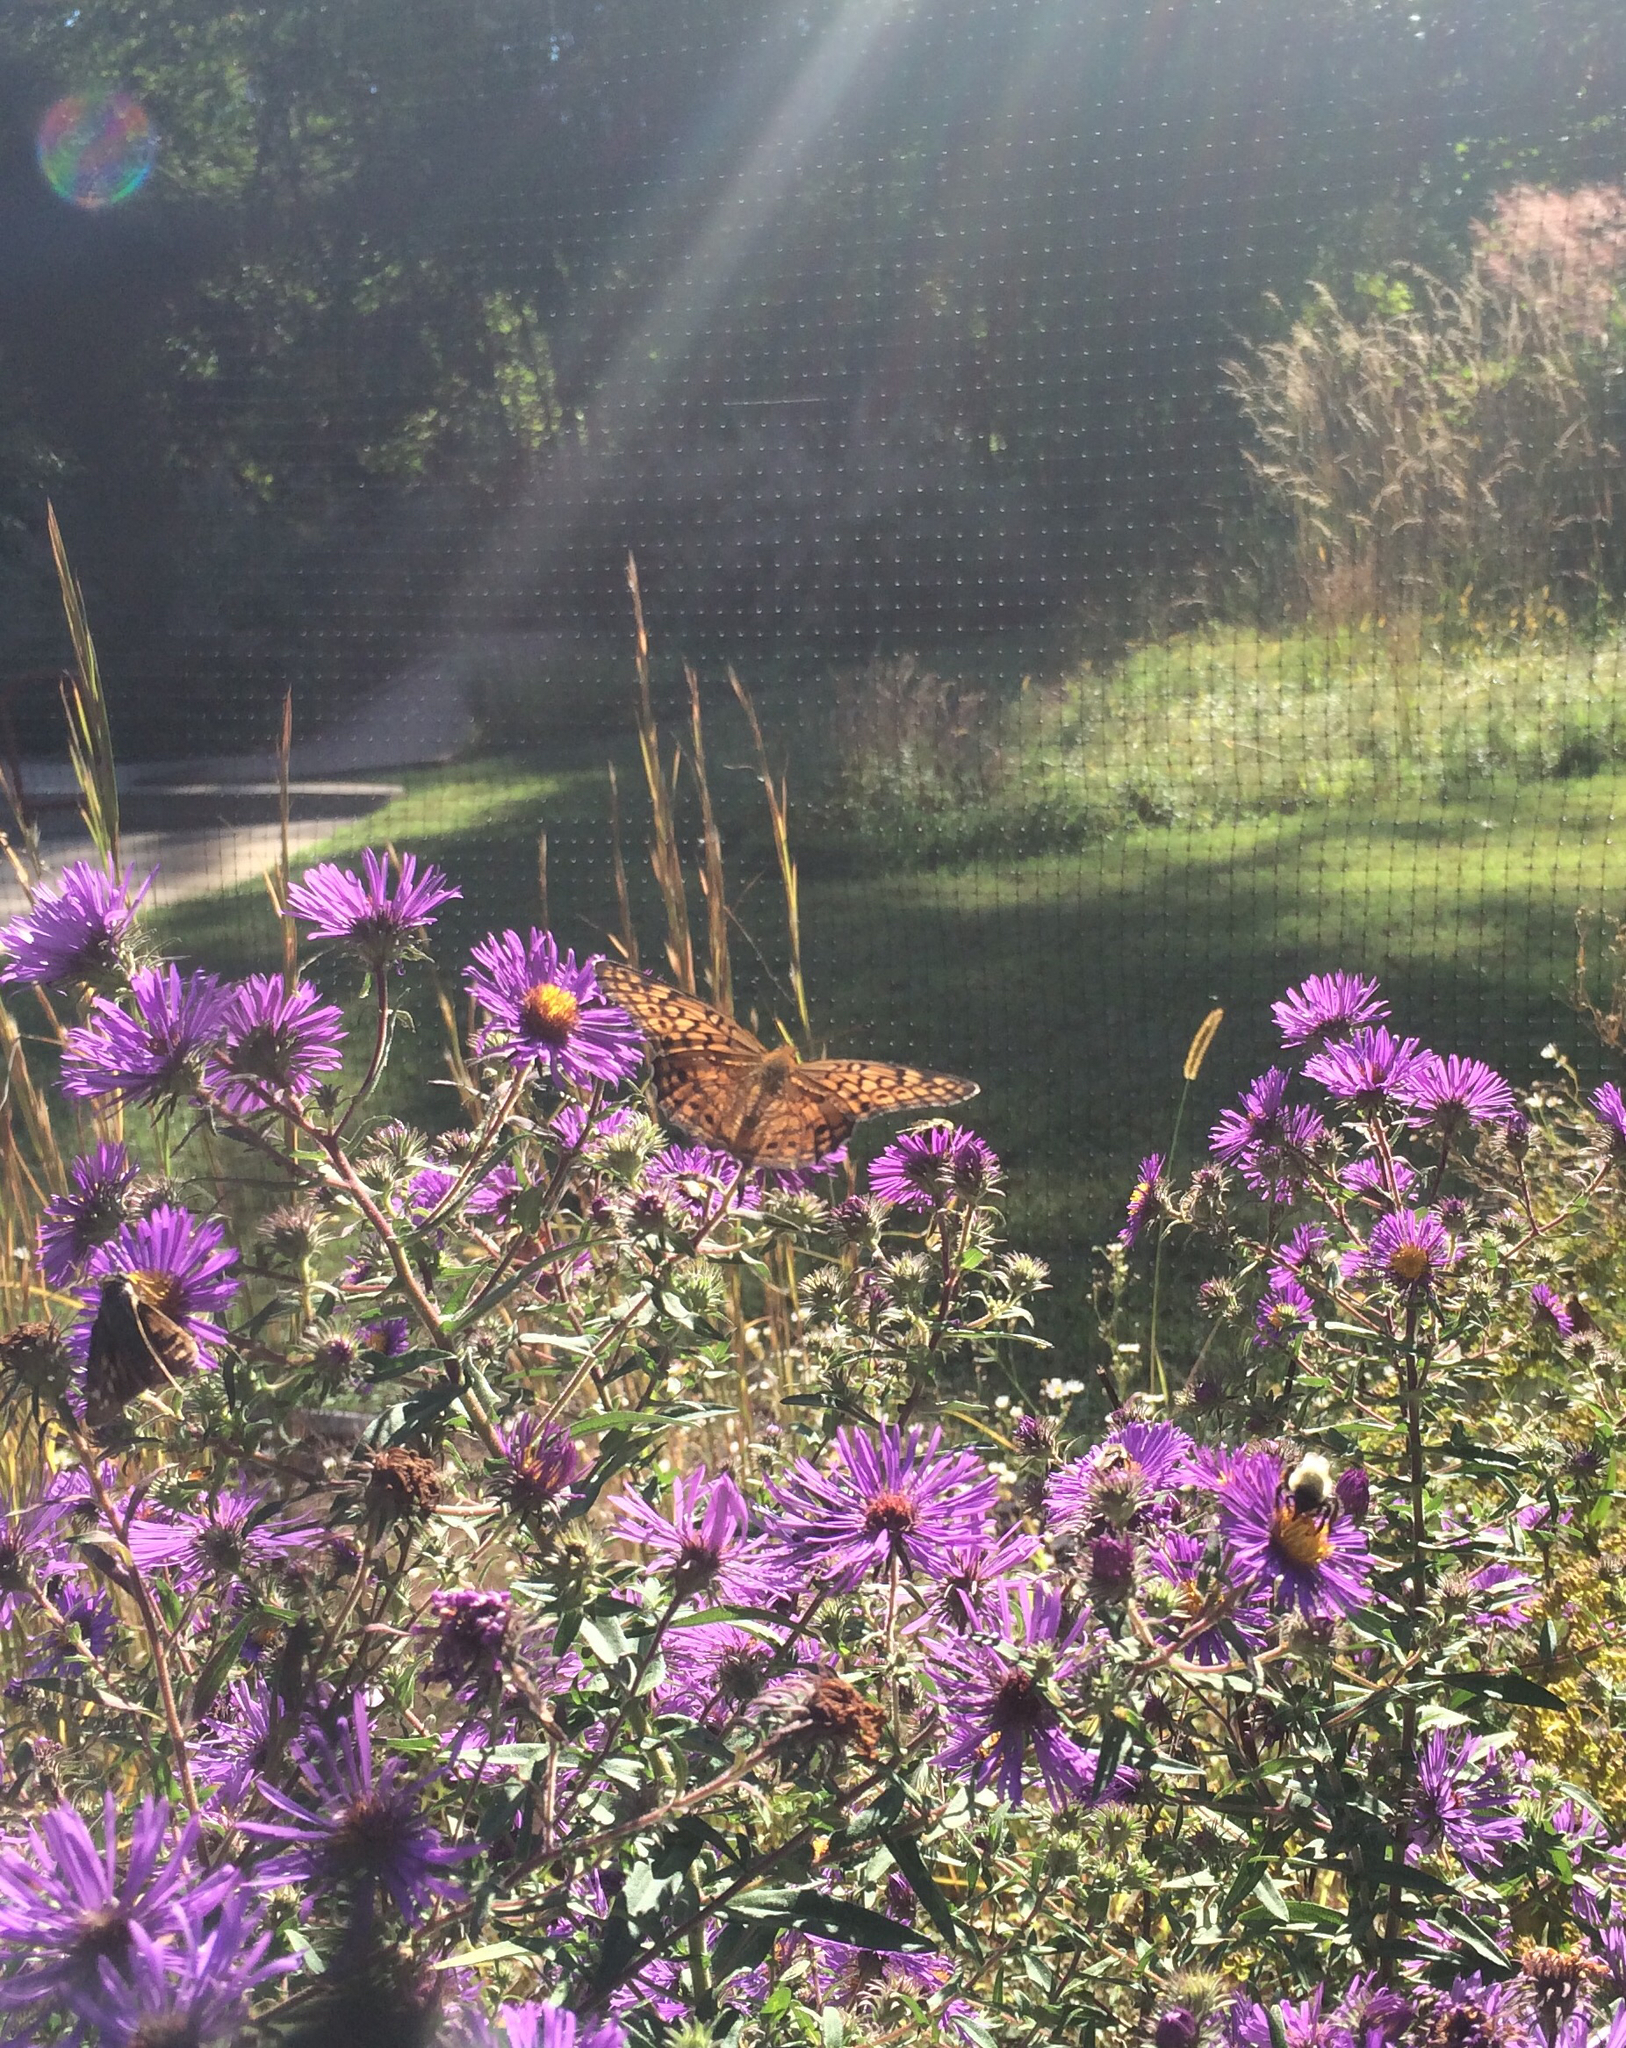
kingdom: Animalia
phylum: Arthropoda
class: Insecta
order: Lepidoptera
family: Nymphalidae
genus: Euptoieta
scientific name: Euptoieta claudia
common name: Variegated fritillary
